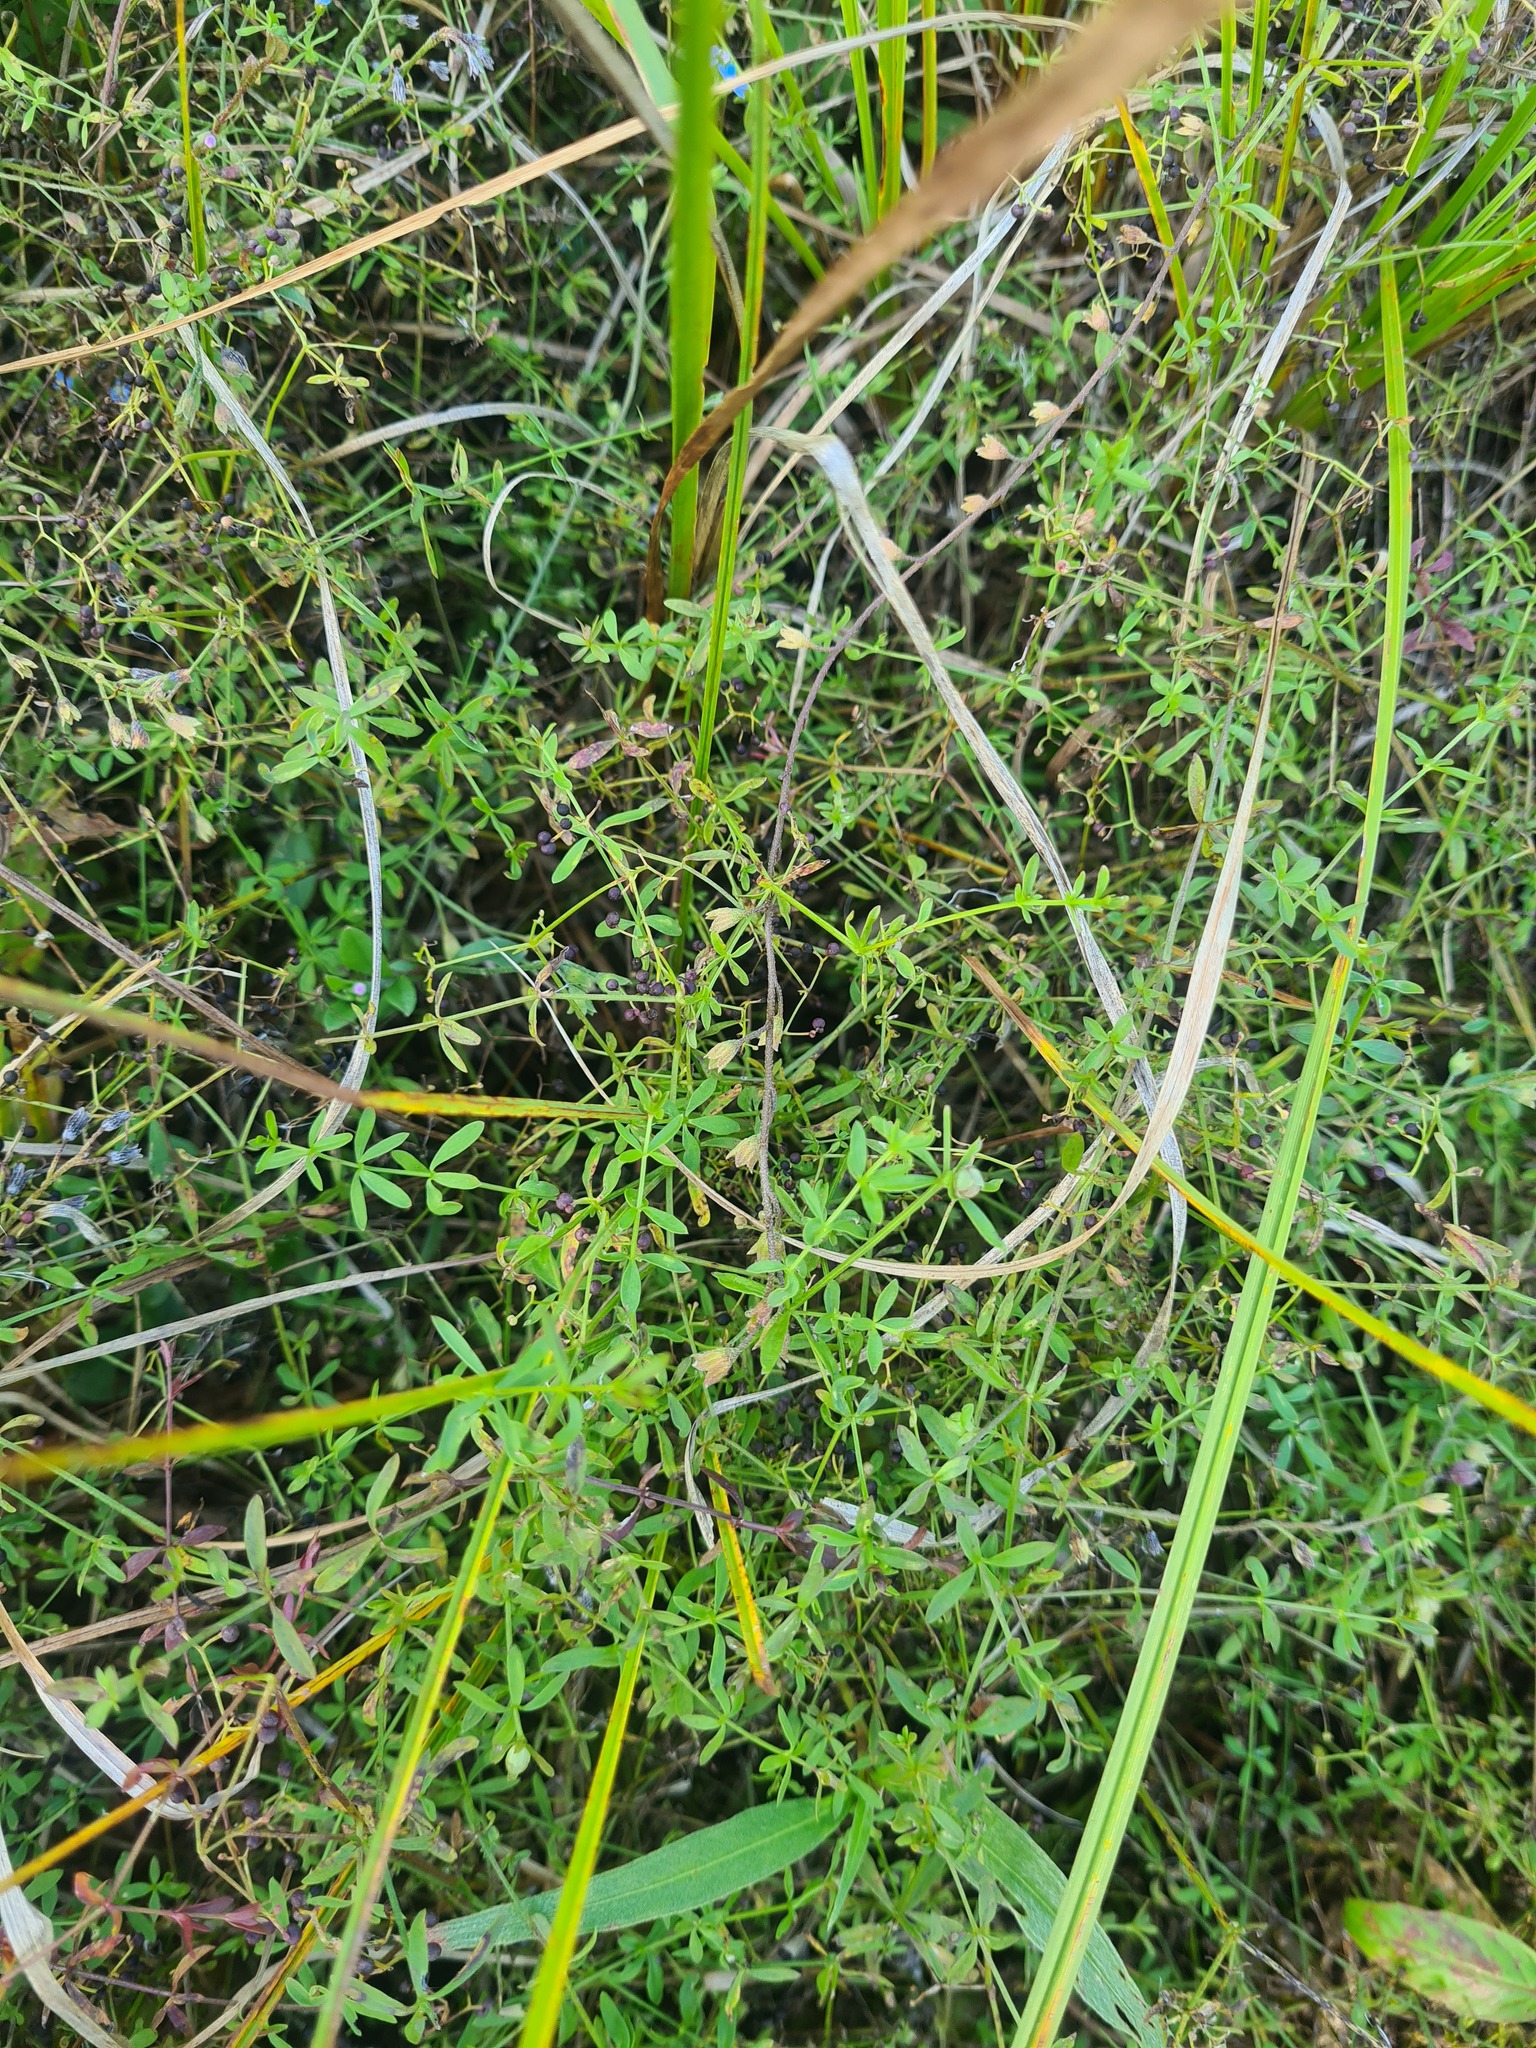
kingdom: Plantae
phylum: Tracheophyta
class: Magnoliopsida
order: Boraginales
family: Boraginaceae
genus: Myosotis
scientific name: Myosotis scorpioides
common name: Water forget-me-not
